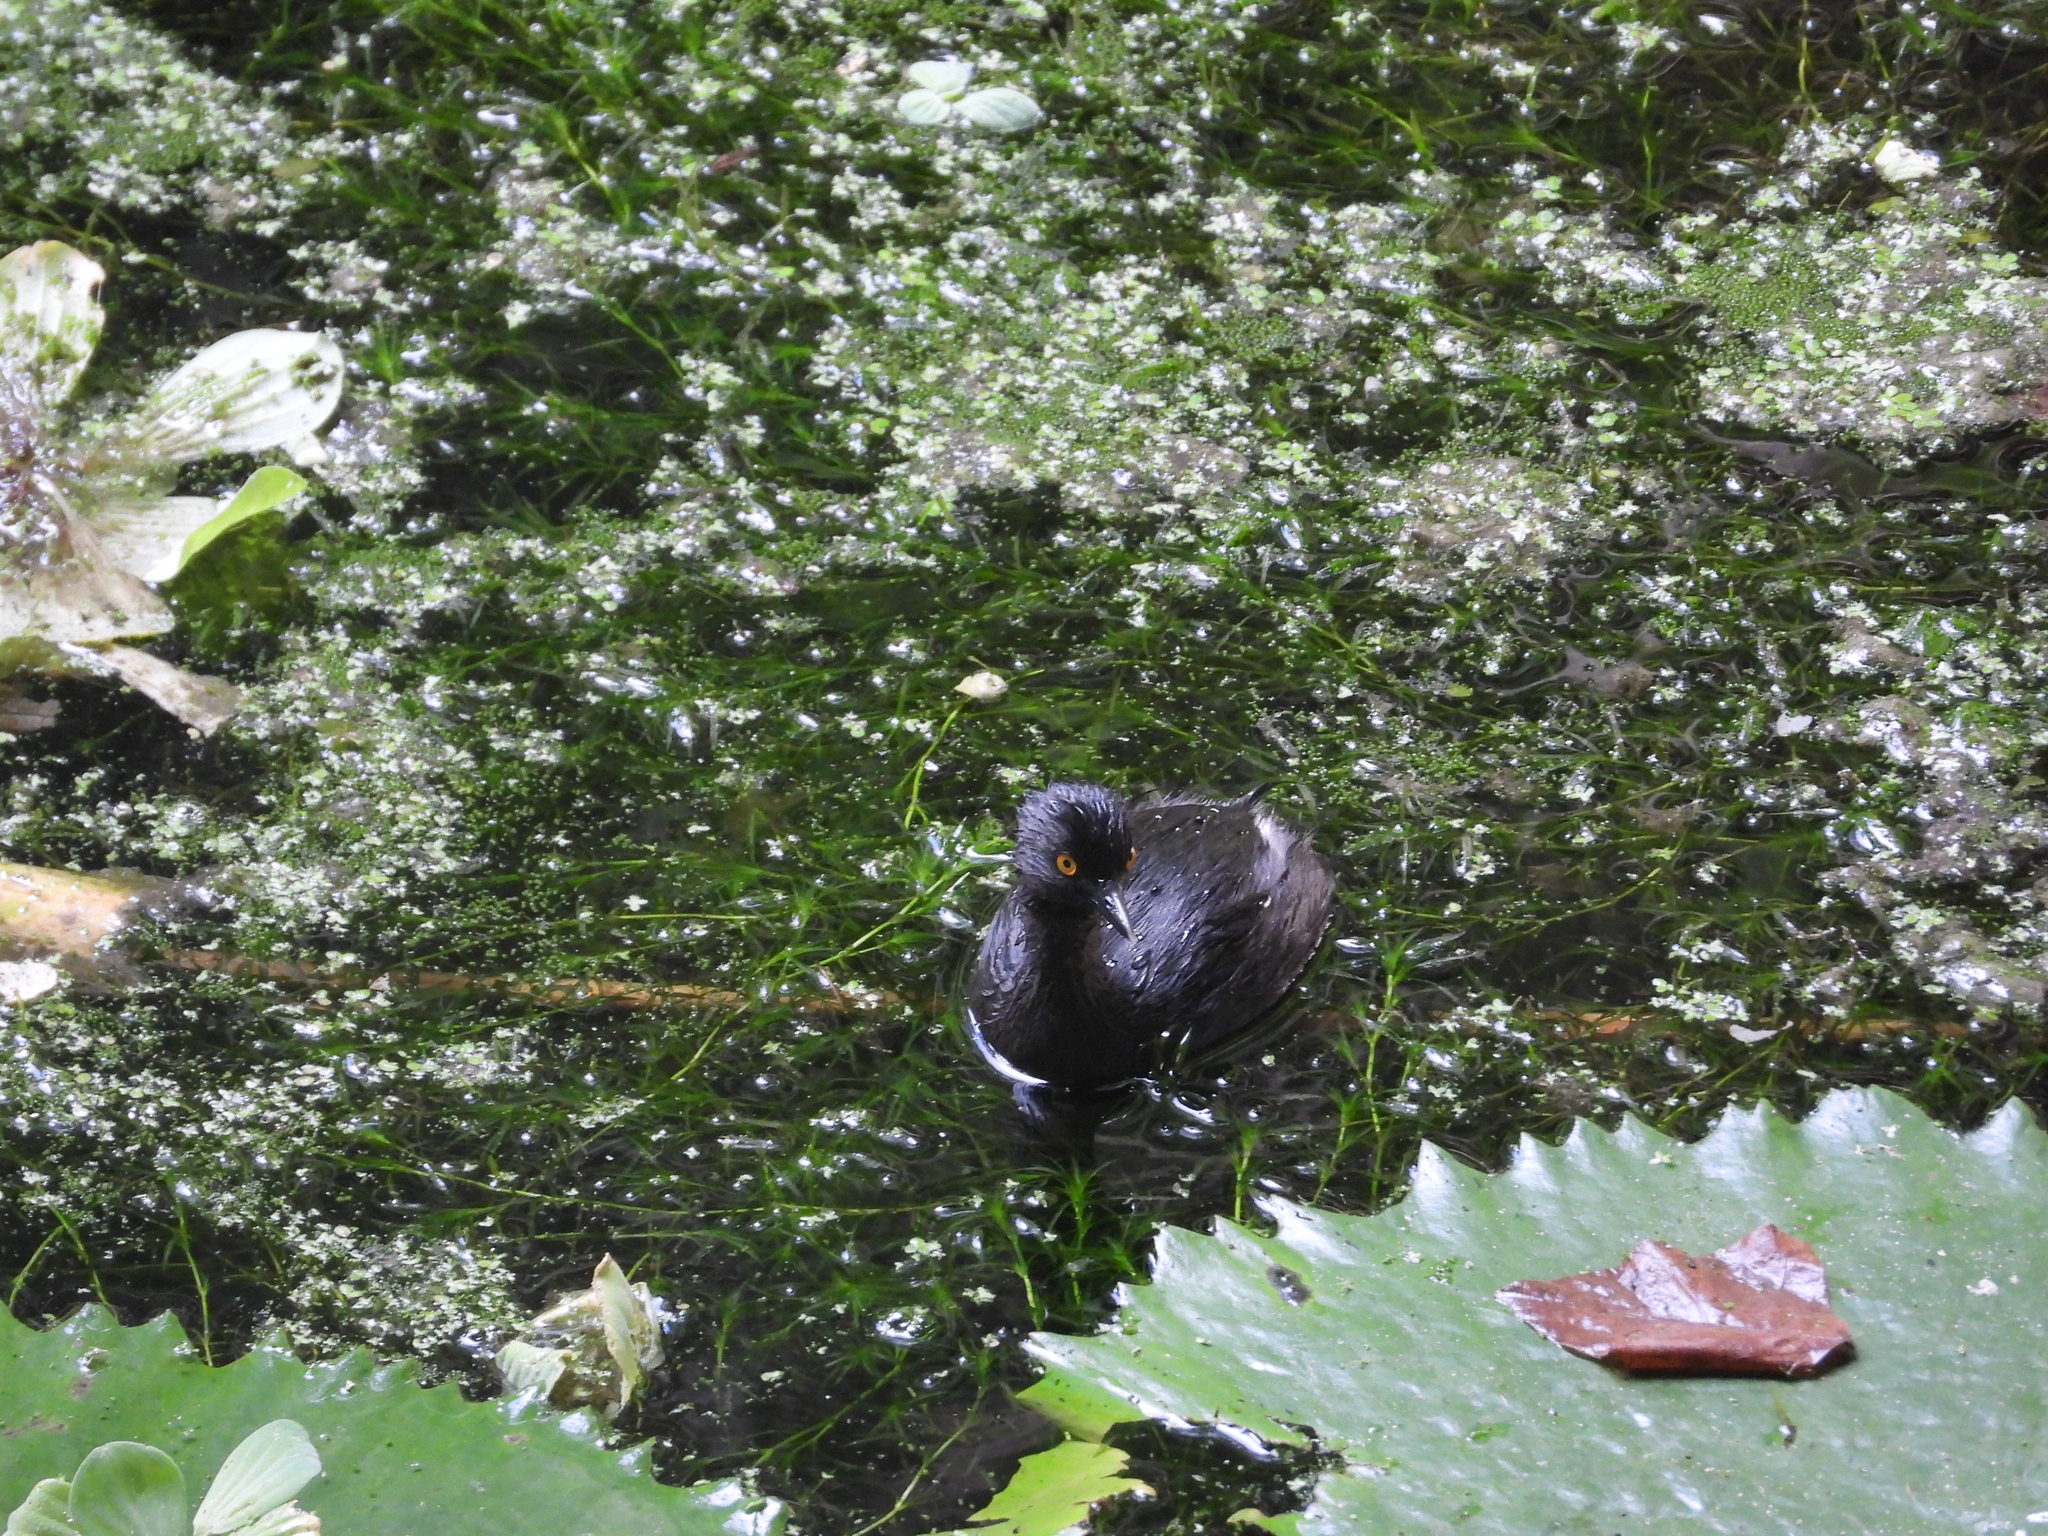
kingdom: Animalia
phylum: Chordata
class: Aves
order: Podicipediformes
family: Podicipedidae
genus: Tachybaptus
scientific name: Tachybaptus dominicus
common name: Least grebe
